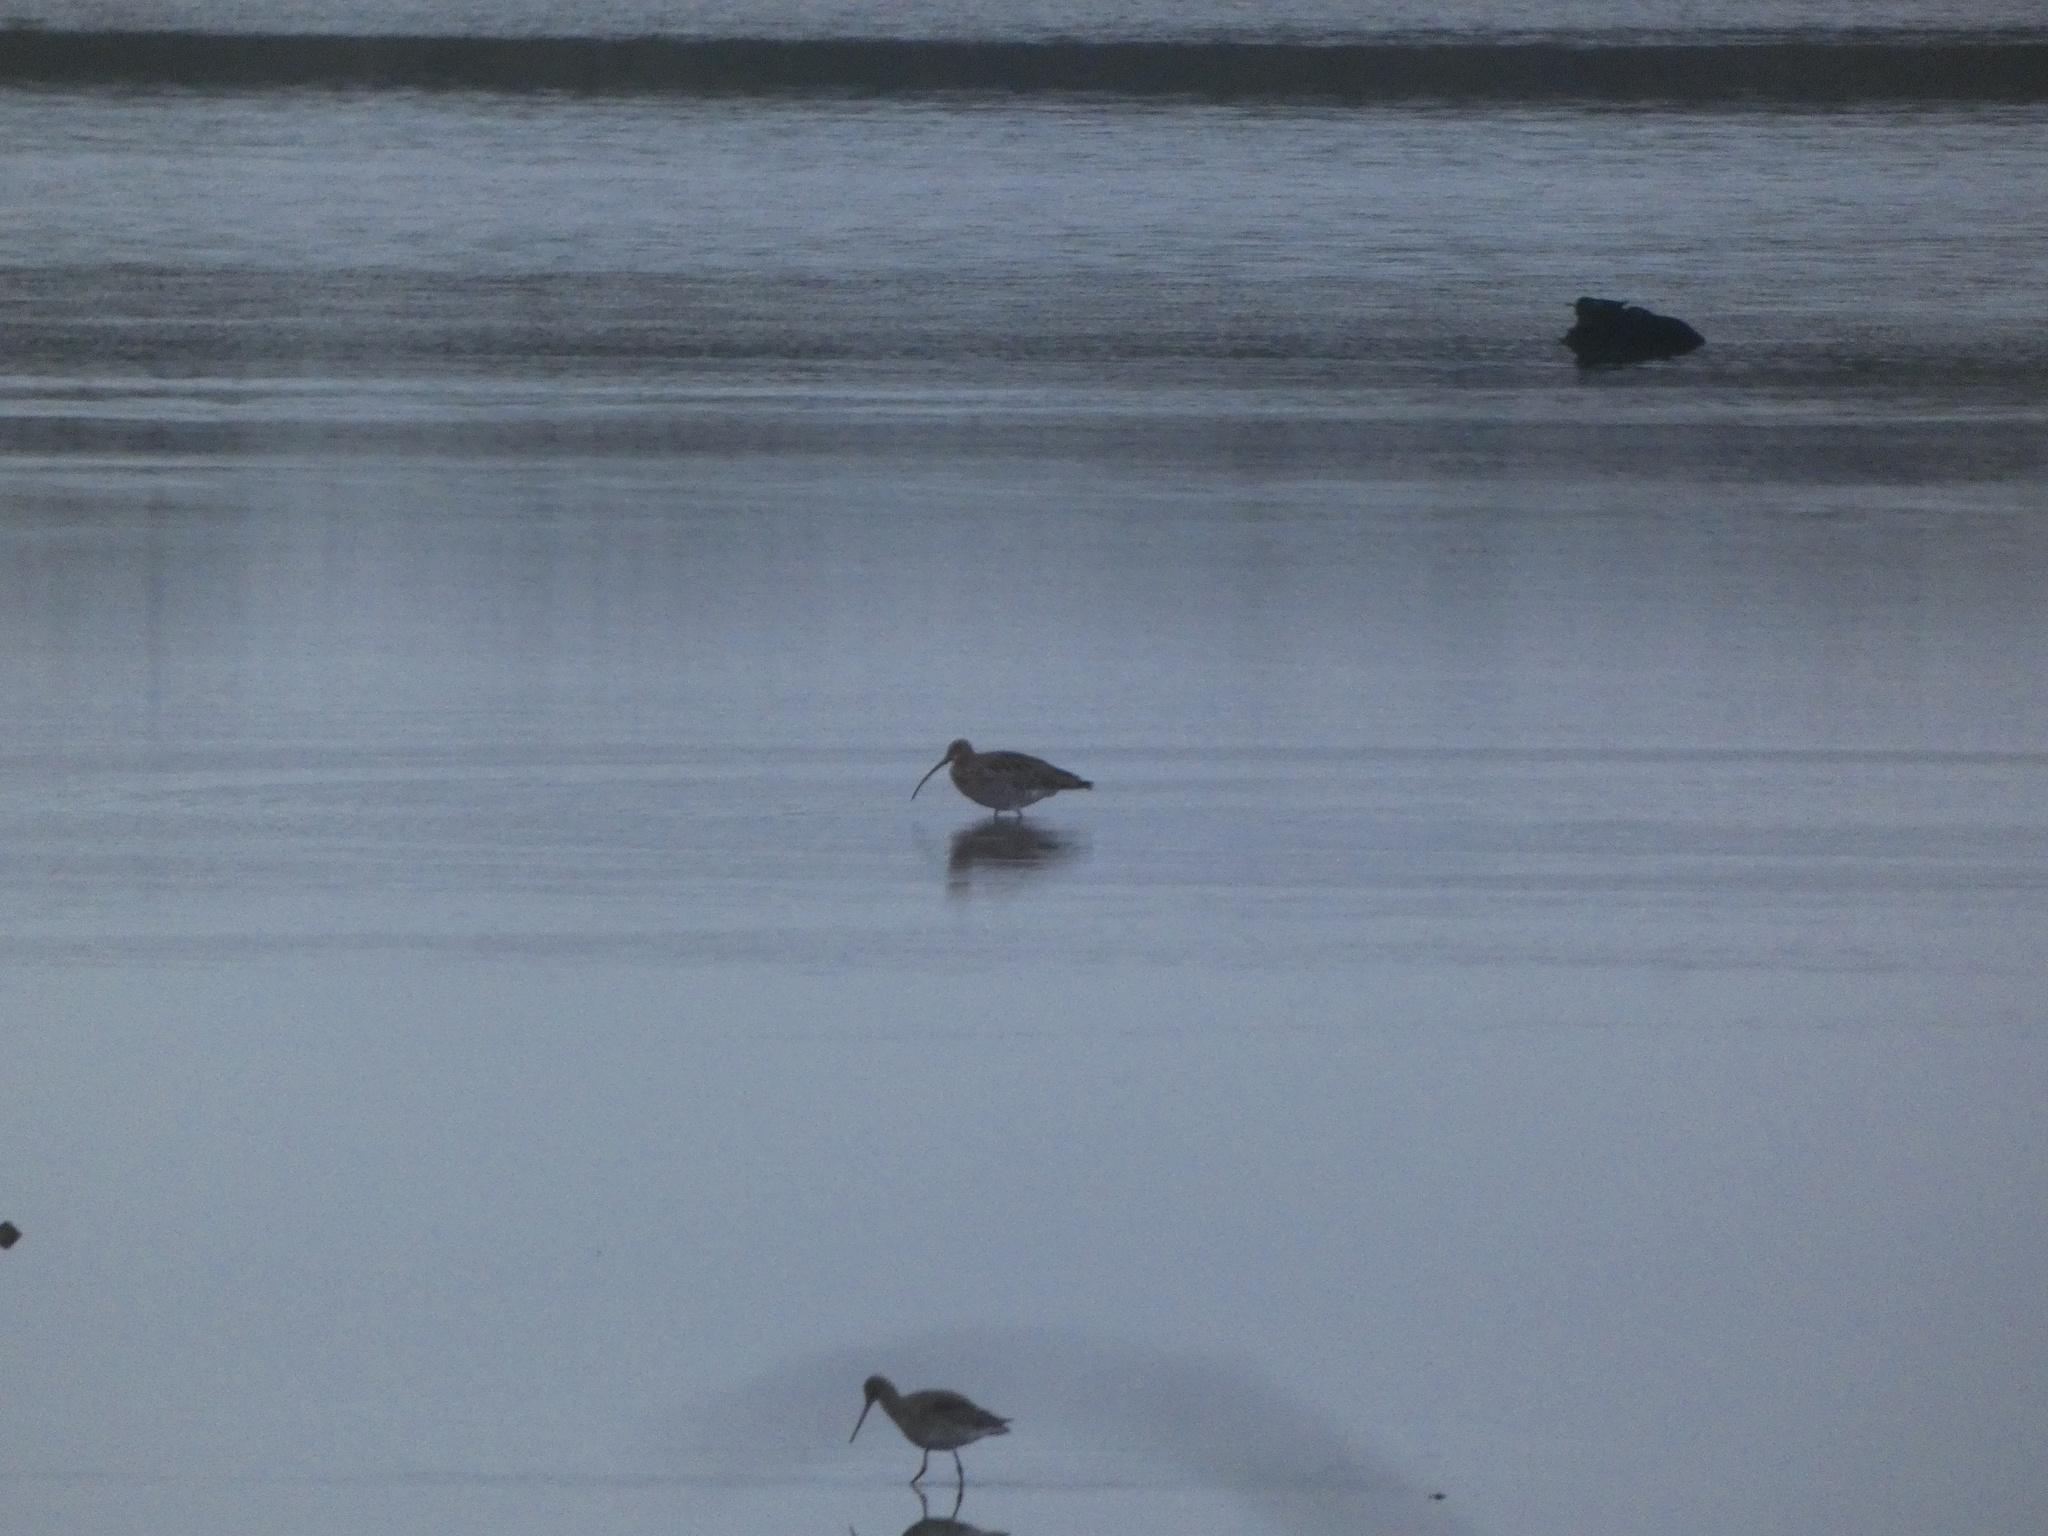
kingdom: Animalia
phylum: Chordata
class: Aves
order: Charadriiformes
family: Scolopacidae
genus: Numenius
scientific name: Numenius arquata
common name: Eurasian curlew
